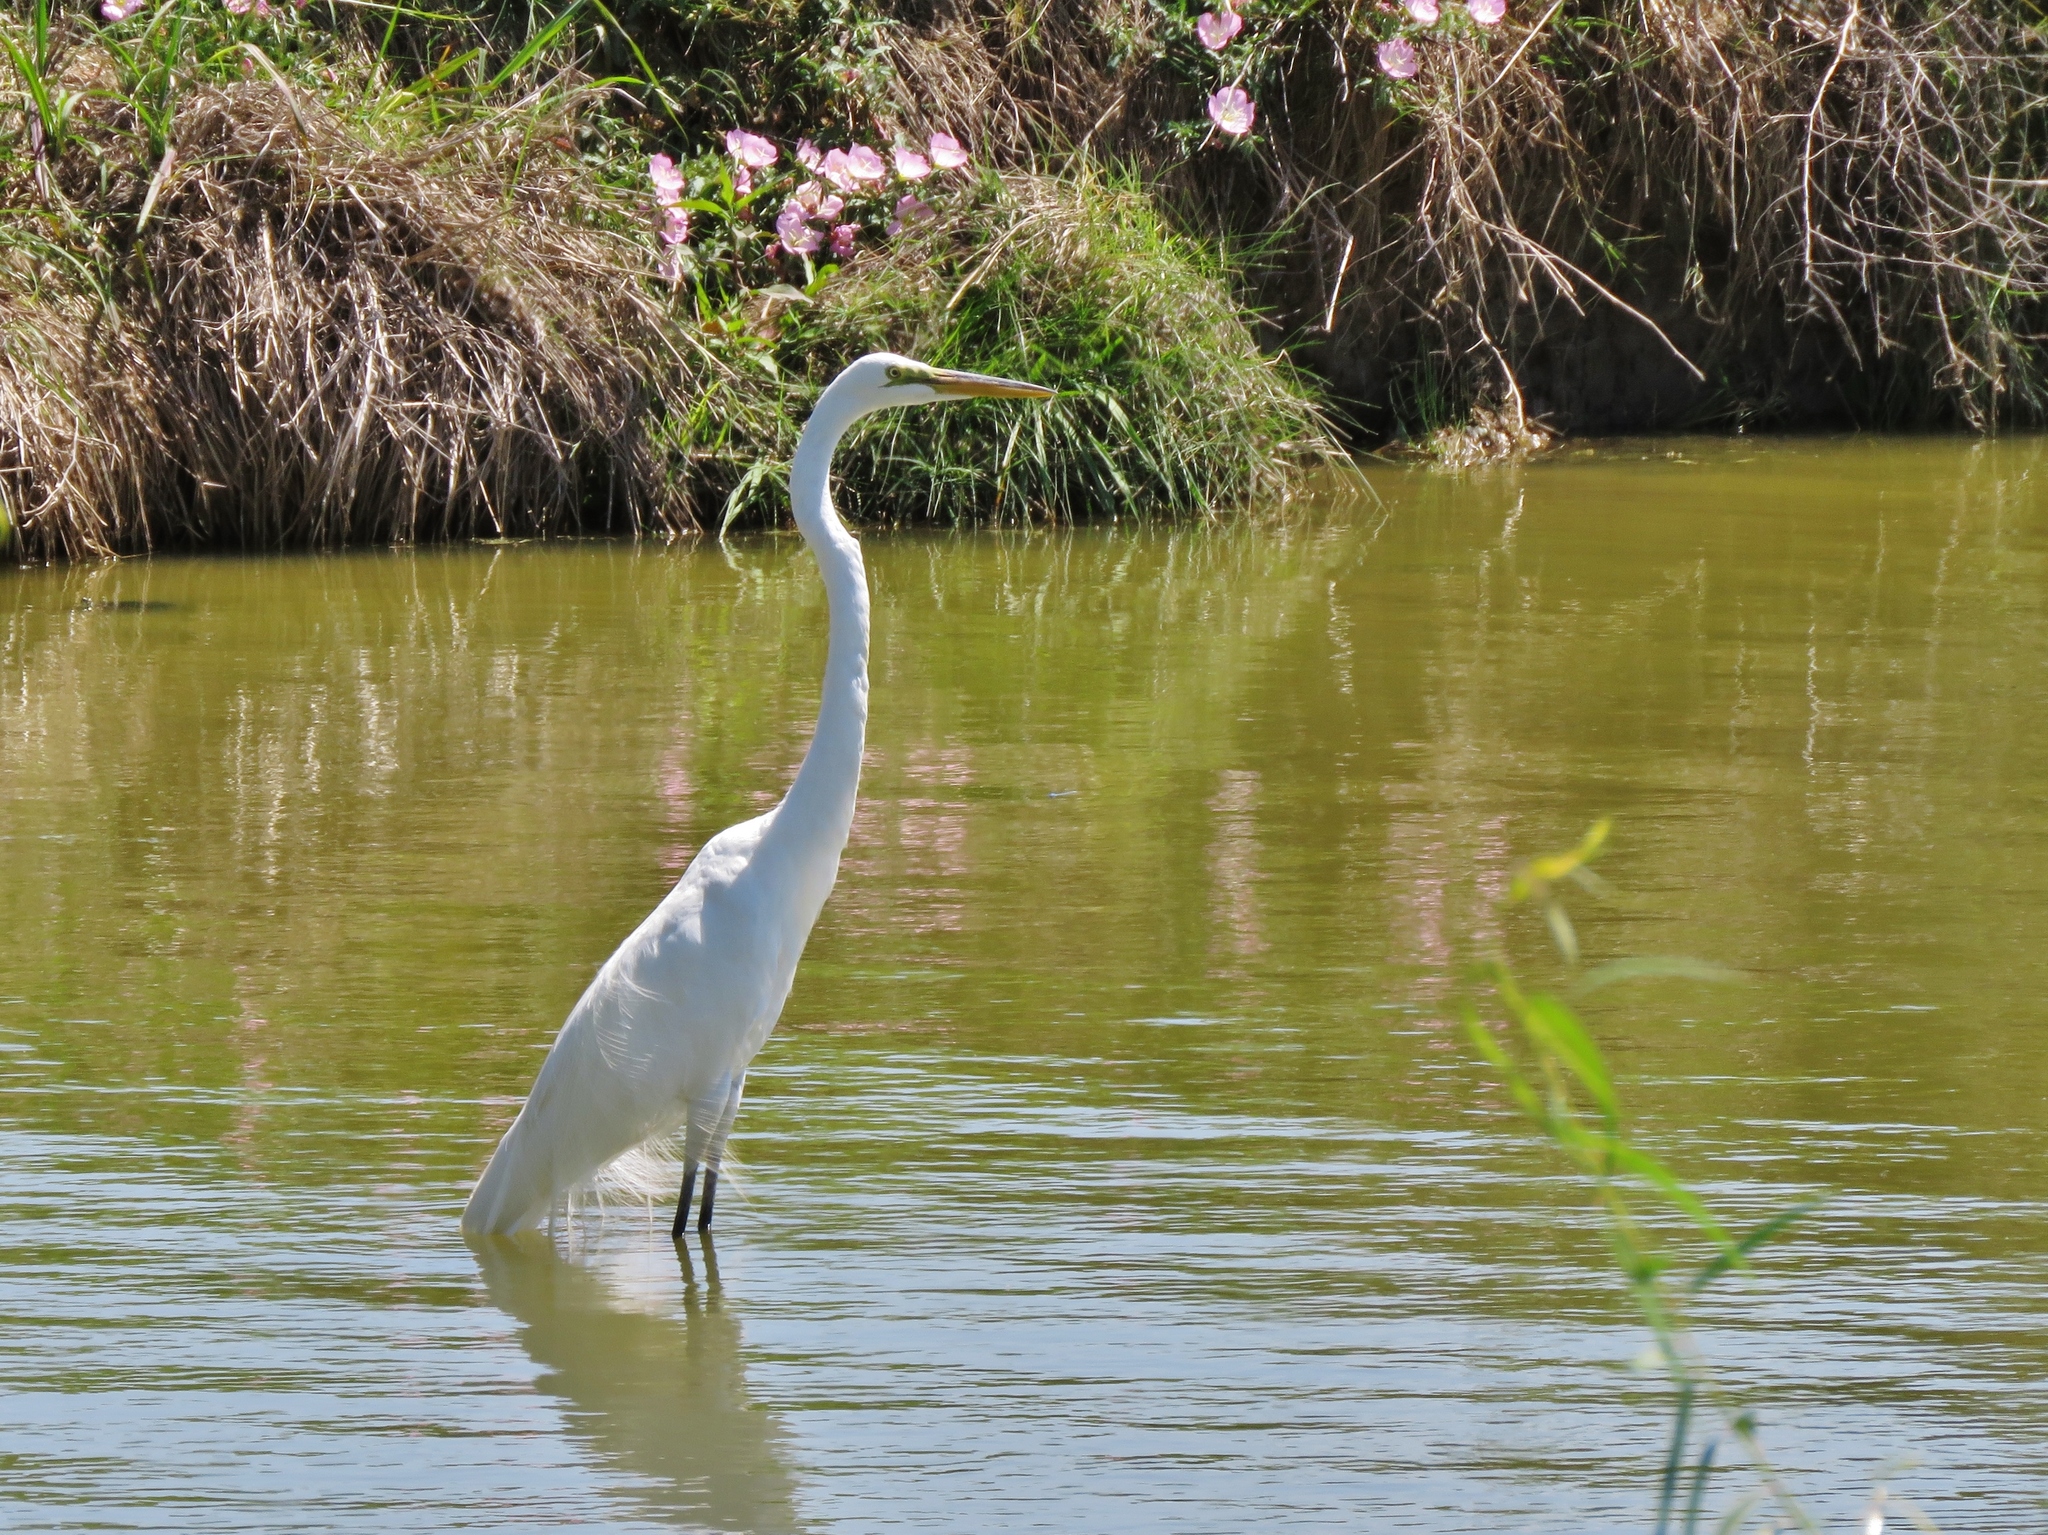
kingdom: Animalia
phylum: Chordata
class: Aves
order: Pelecaniformes
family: Ardeidae
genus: Ardea
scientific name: Ardea alba
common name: Great egret
